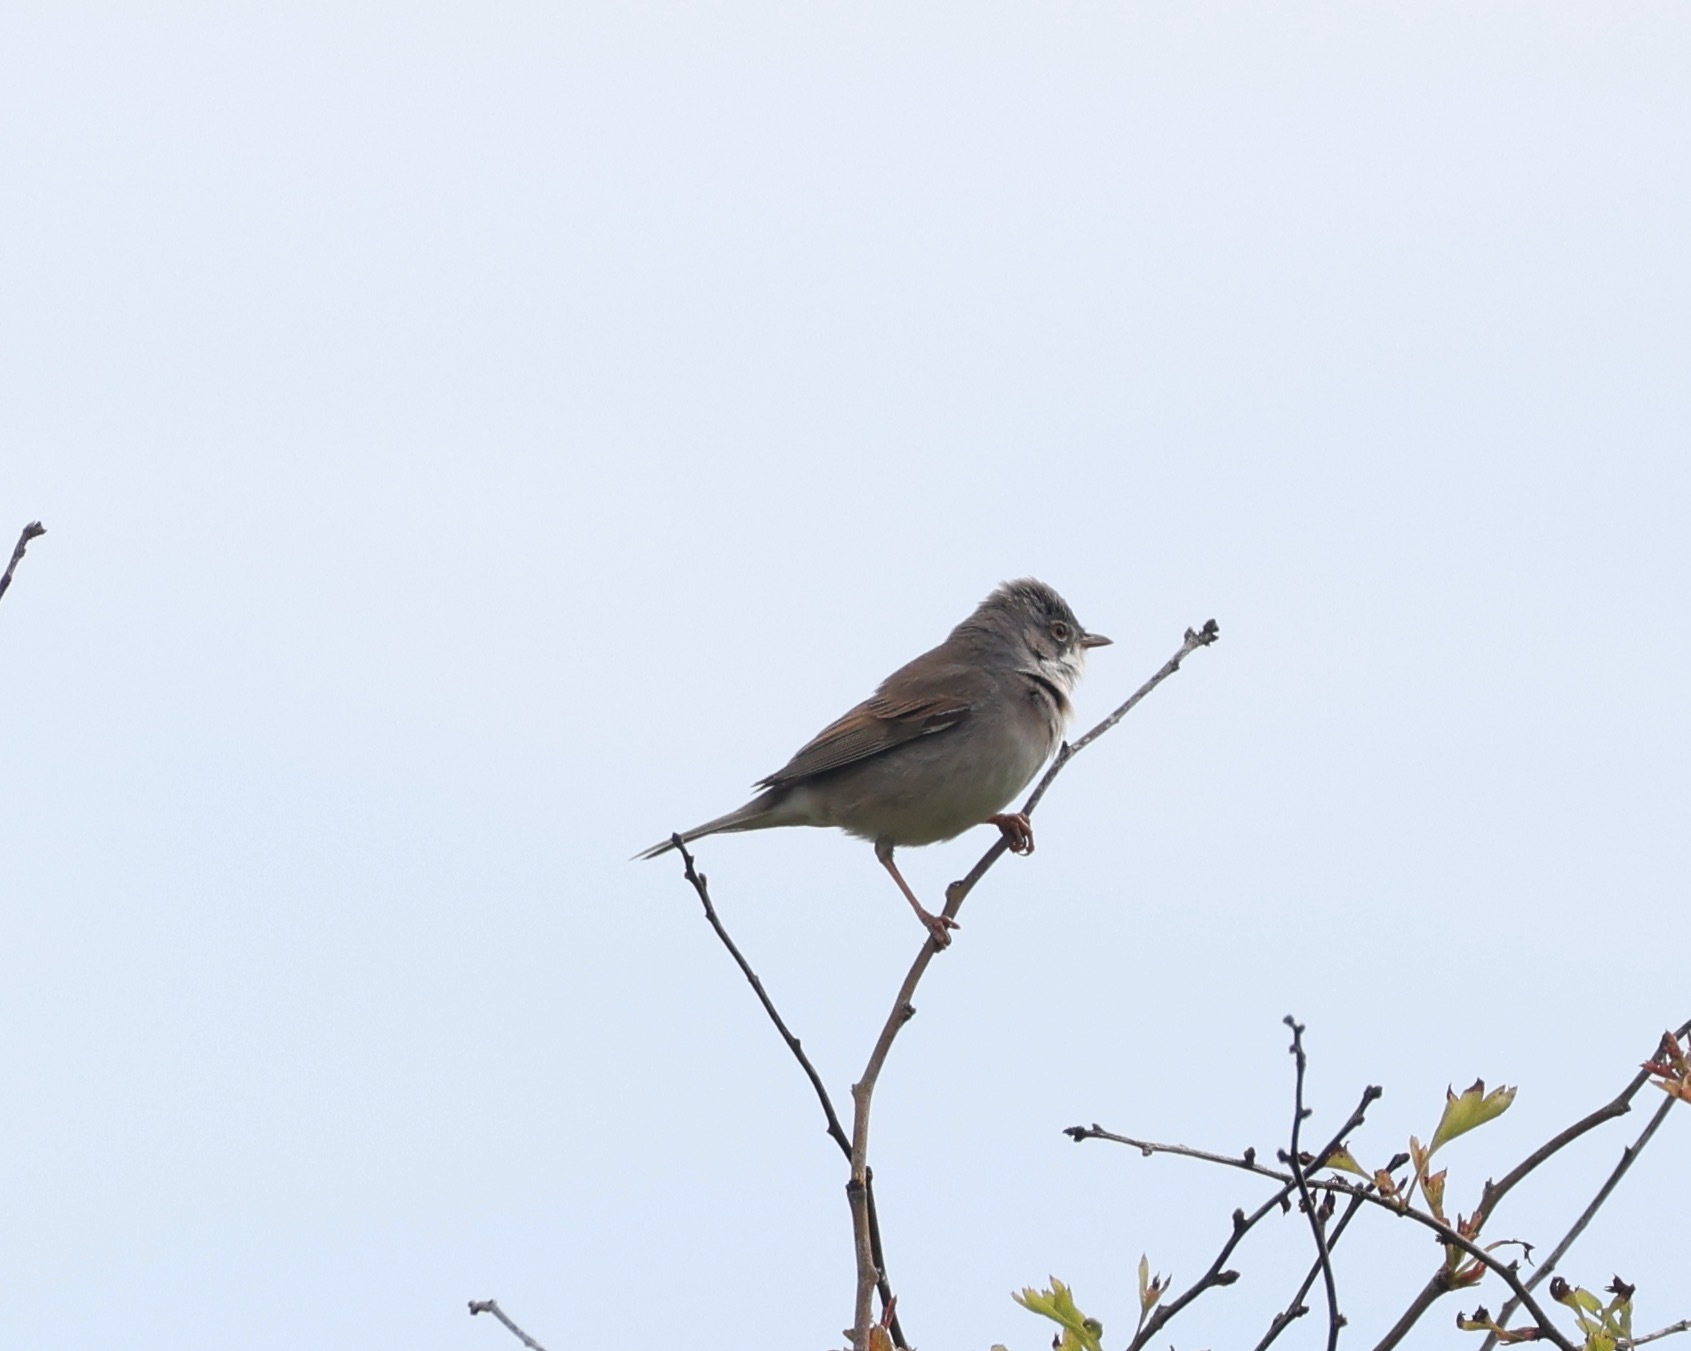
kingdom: Animalia
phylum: Chordata
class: Aves
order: Passeriformes
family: Sylviidae
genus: Sylvia
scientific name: Sylvia communis
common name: Common whitethroat
